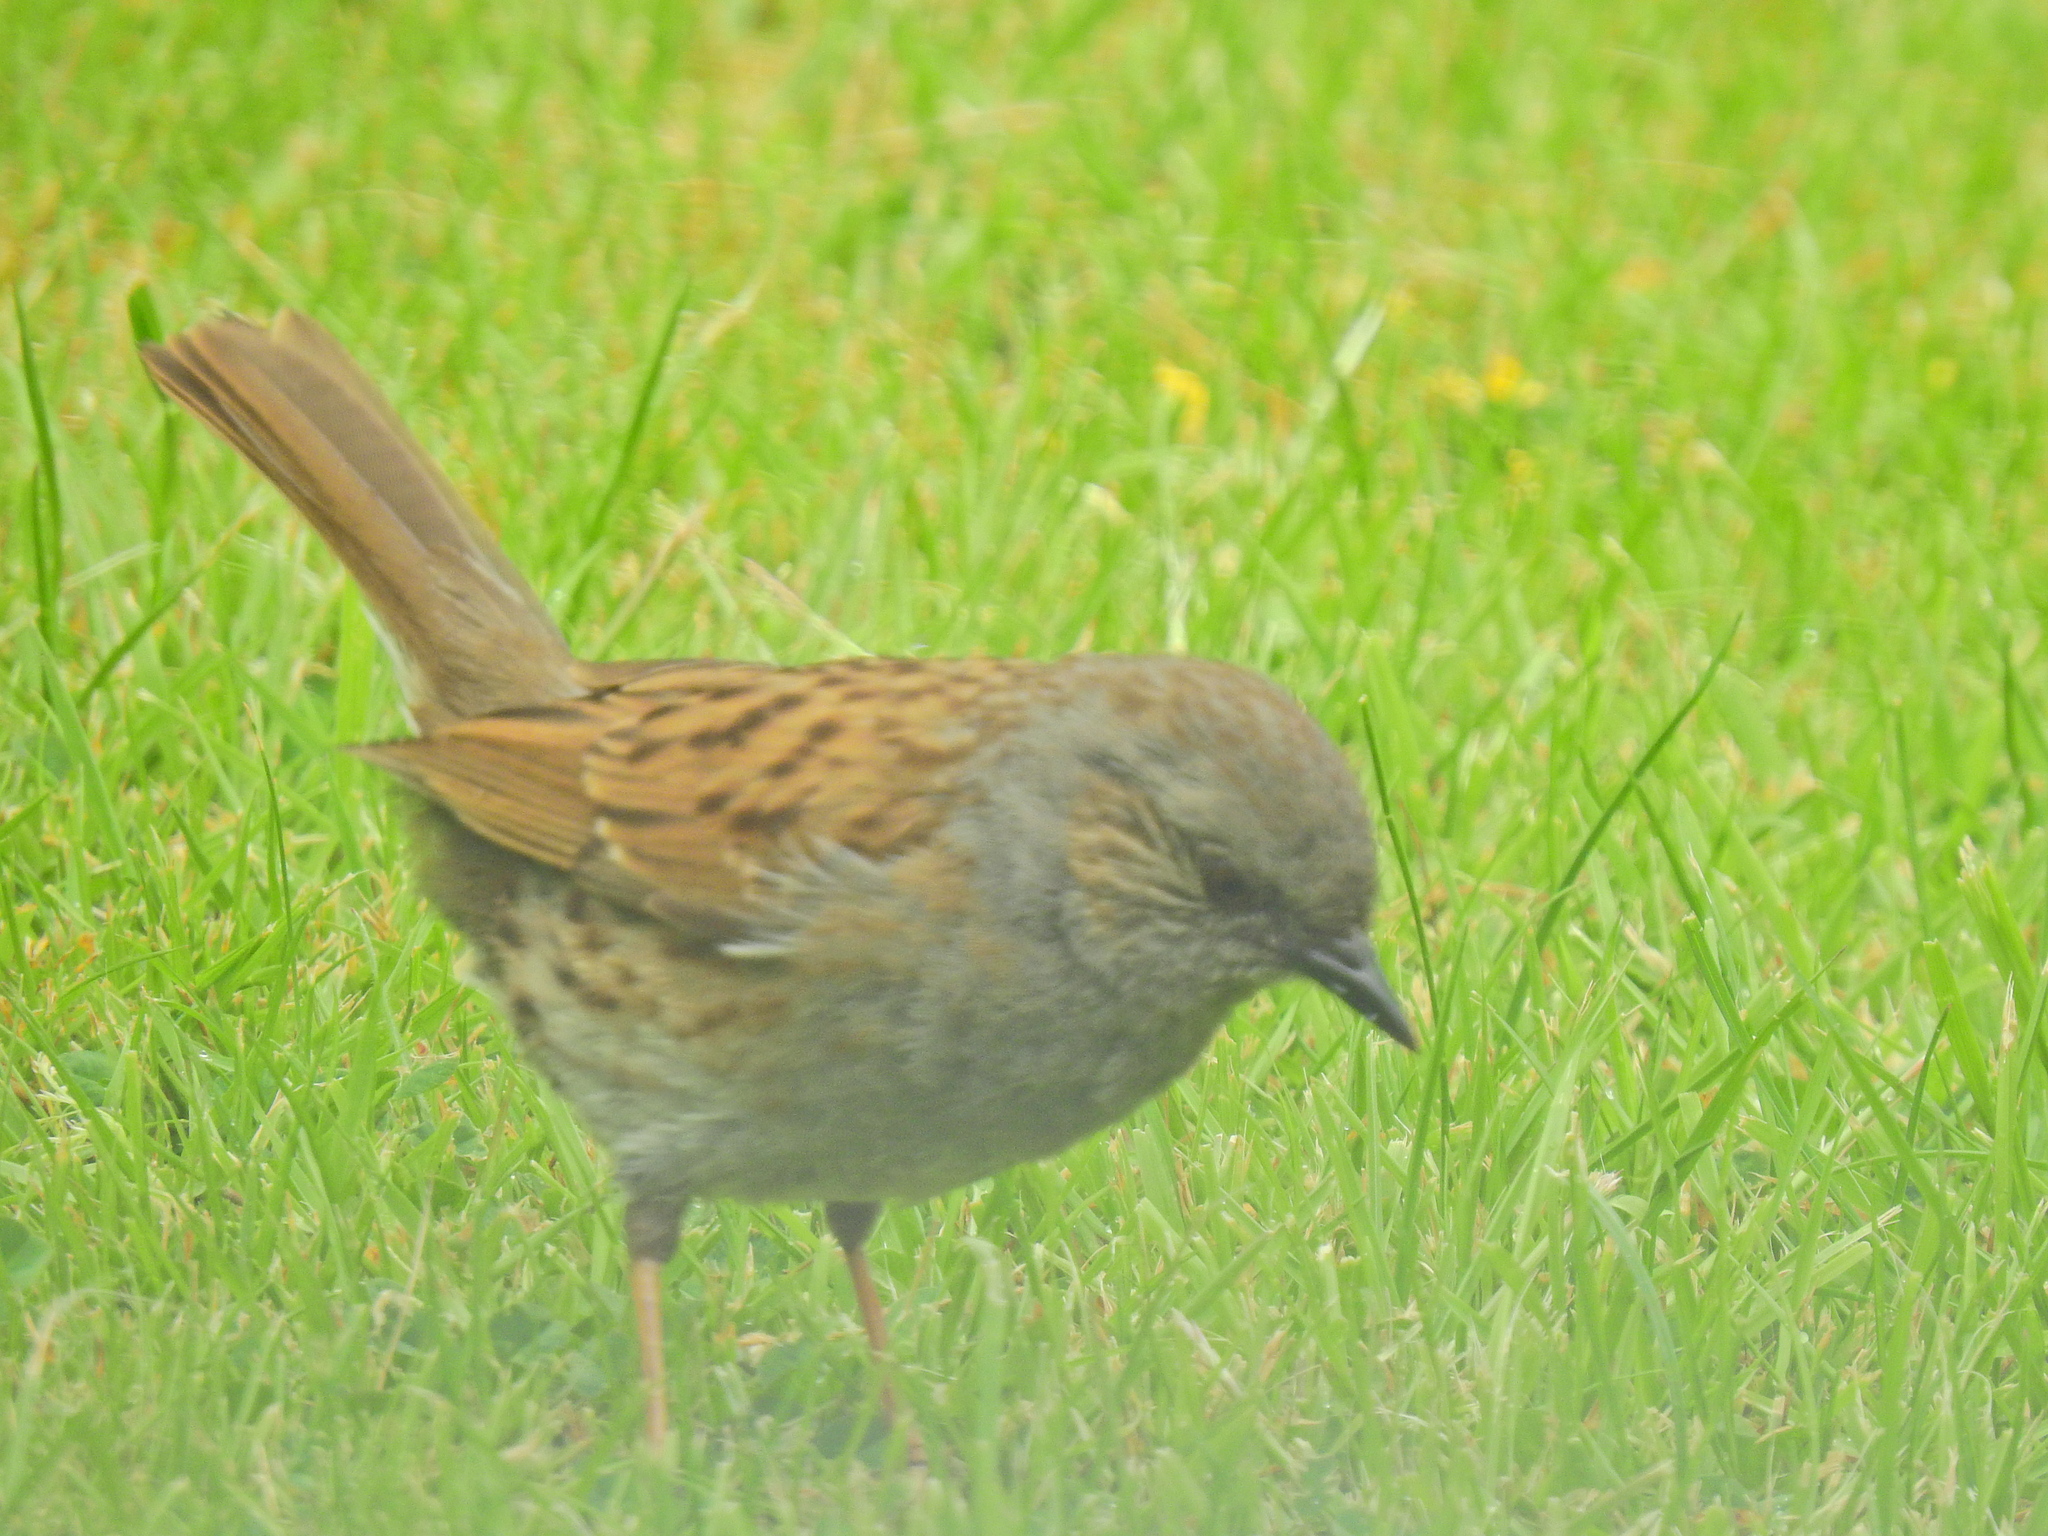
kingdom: Animalia
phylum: Chordata
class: Aves
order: Passeriformes
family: Prunellidae
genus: Prunella
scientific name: Prunella modularis
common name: Dunnock
